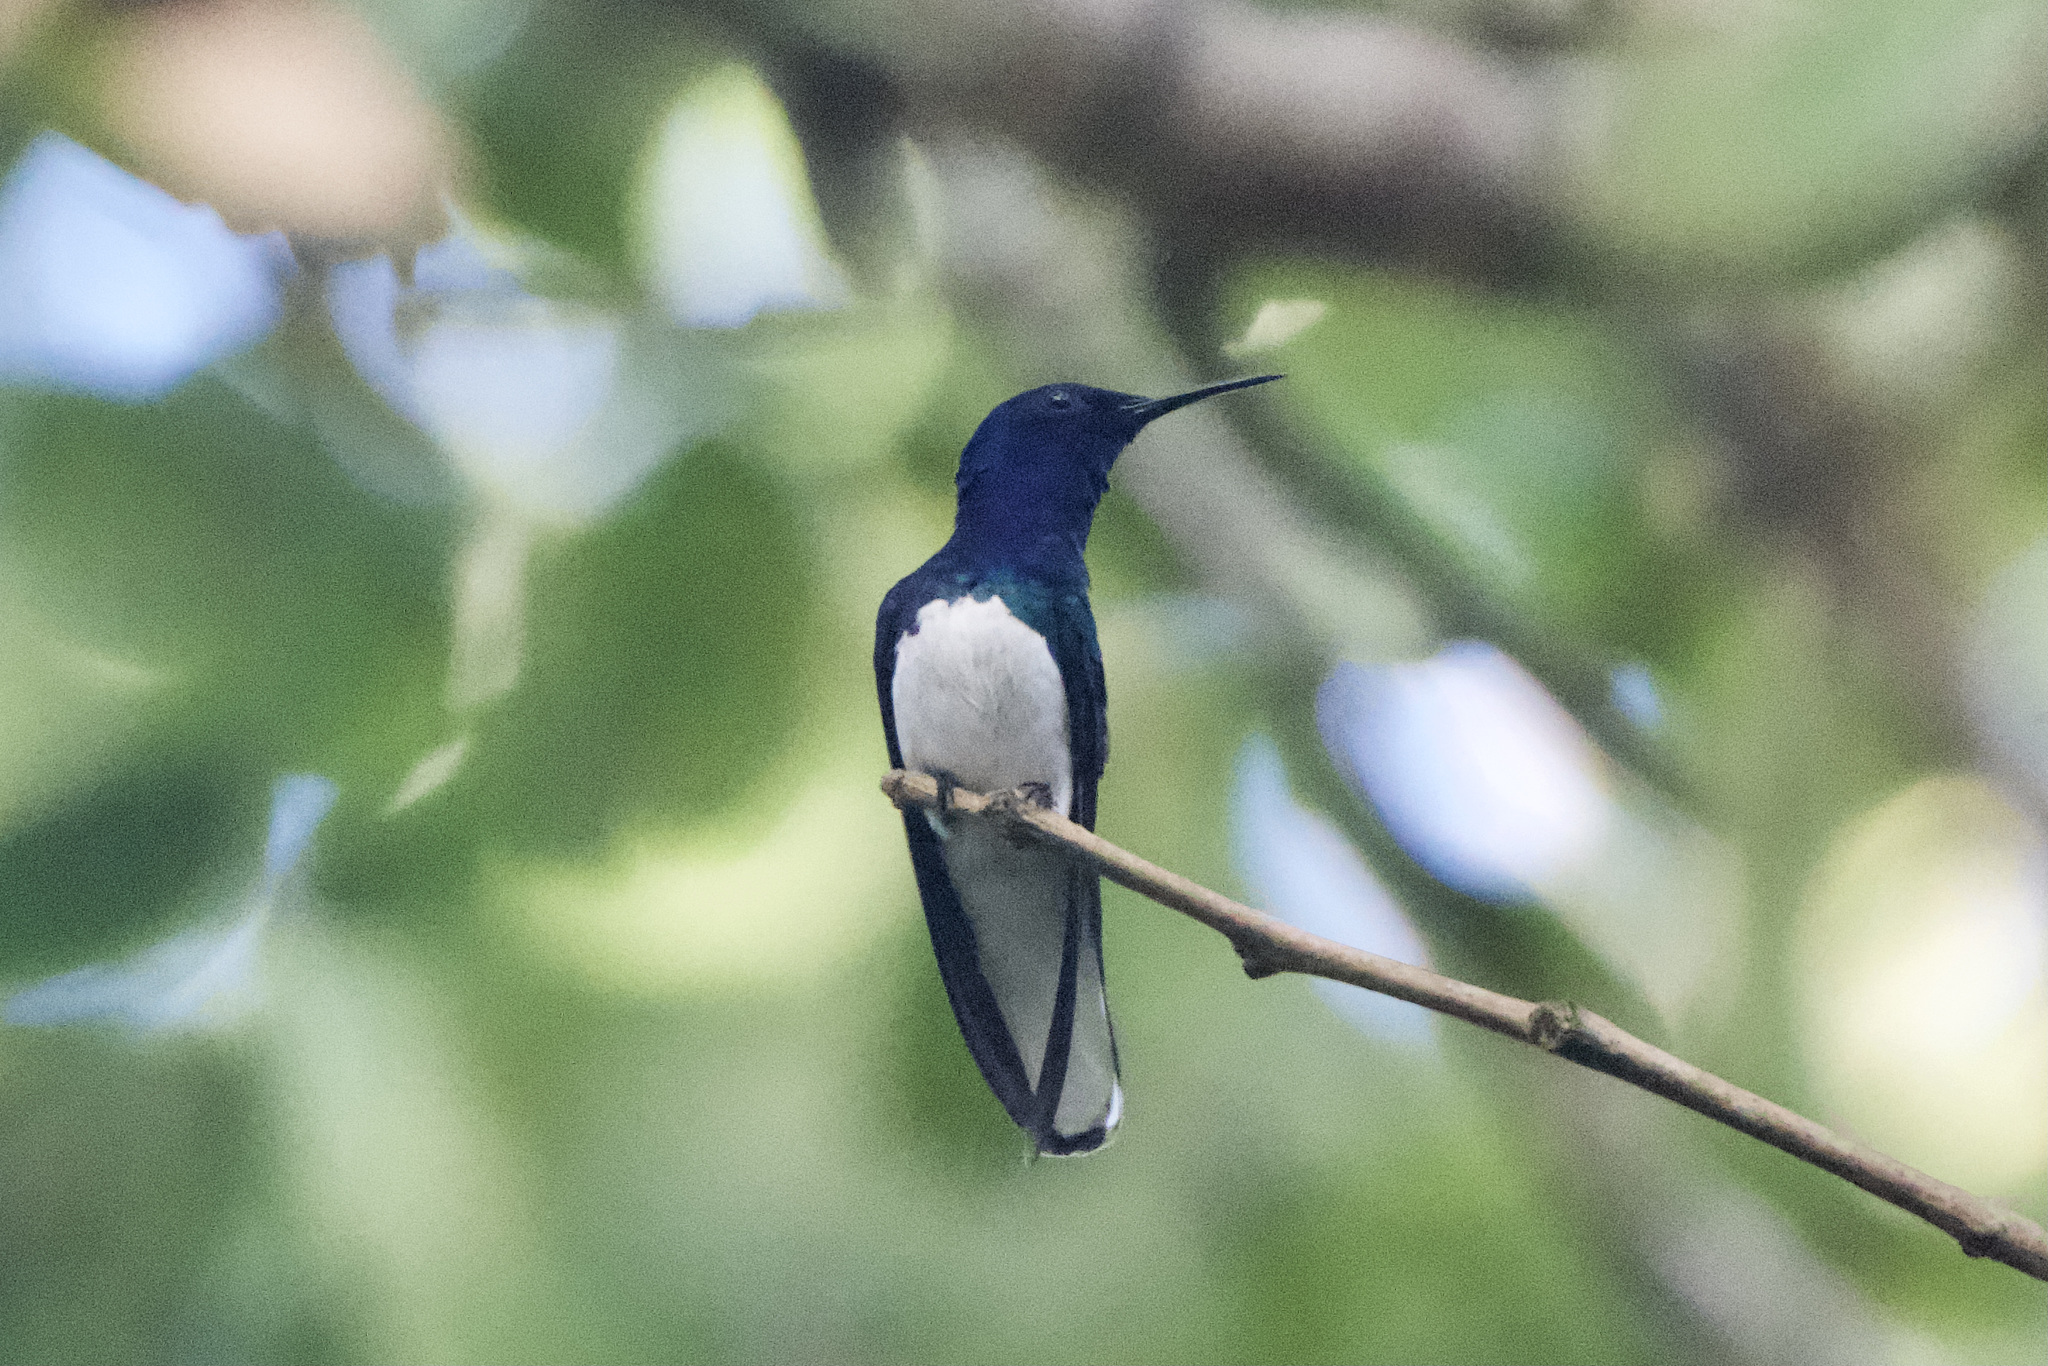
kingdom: Animalia
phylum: Chordata
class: Aves
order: Apodiformes
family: Trochilidae
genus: Florisuga
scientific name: Florisuga mellivora
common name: White-necked jacobin
